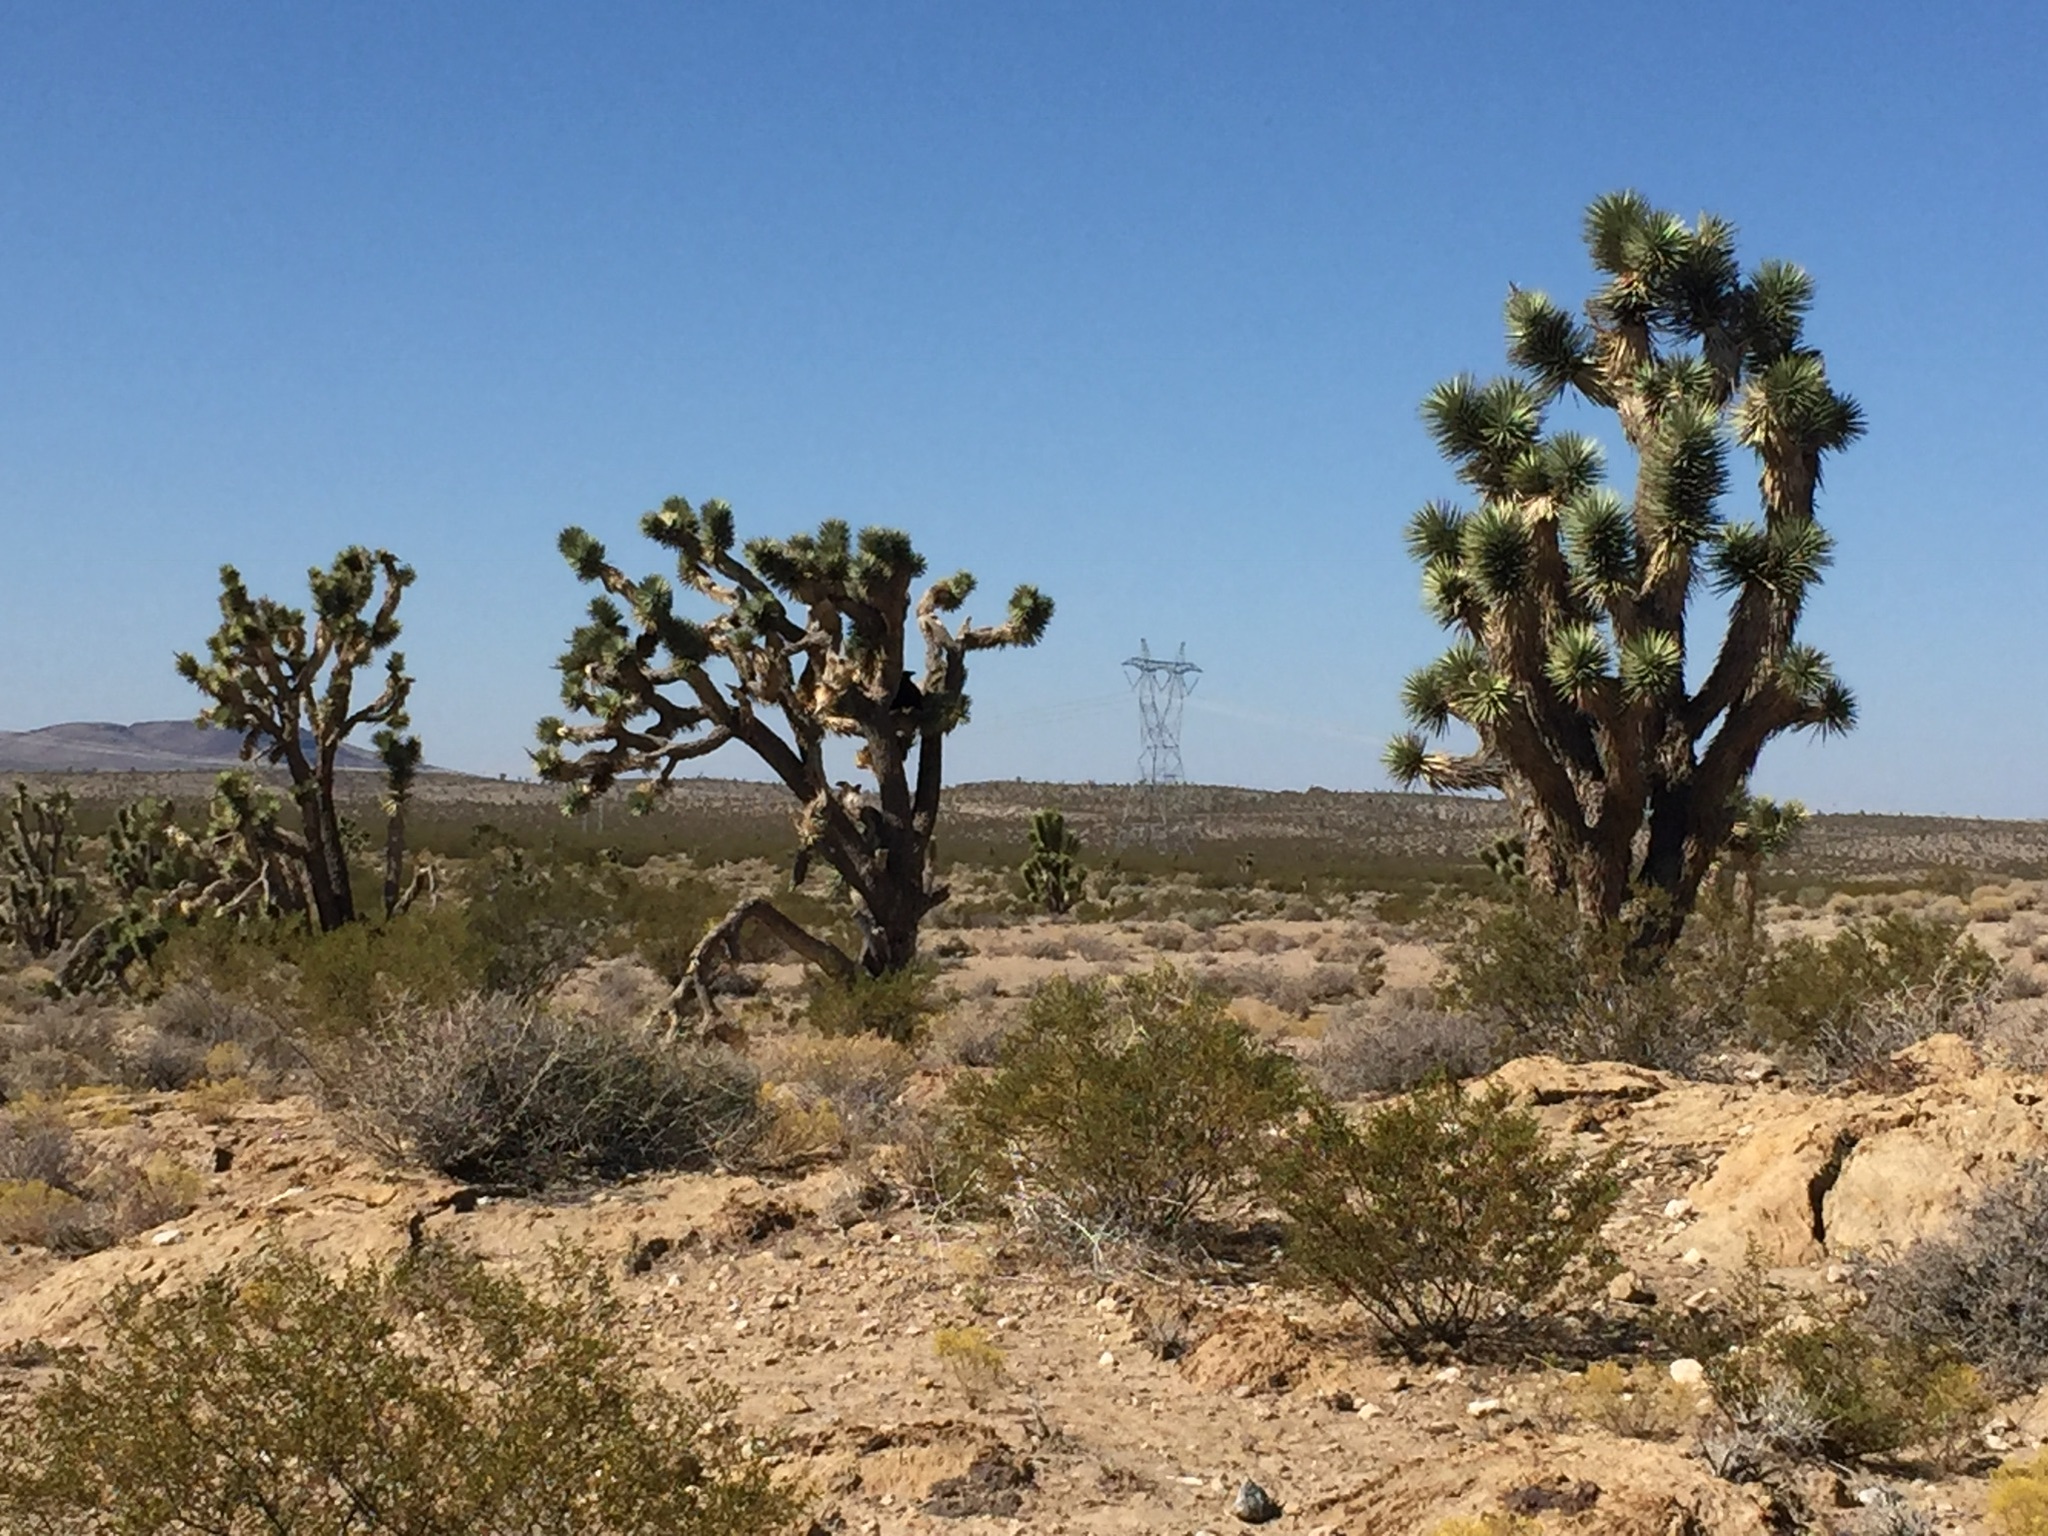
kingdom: Plantae
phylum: Tracheophyta
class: Liliopsida
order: Asparagales
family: Asparagaceae
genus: Yucca
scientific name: Yucca brevifolia
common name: Joshua tree
